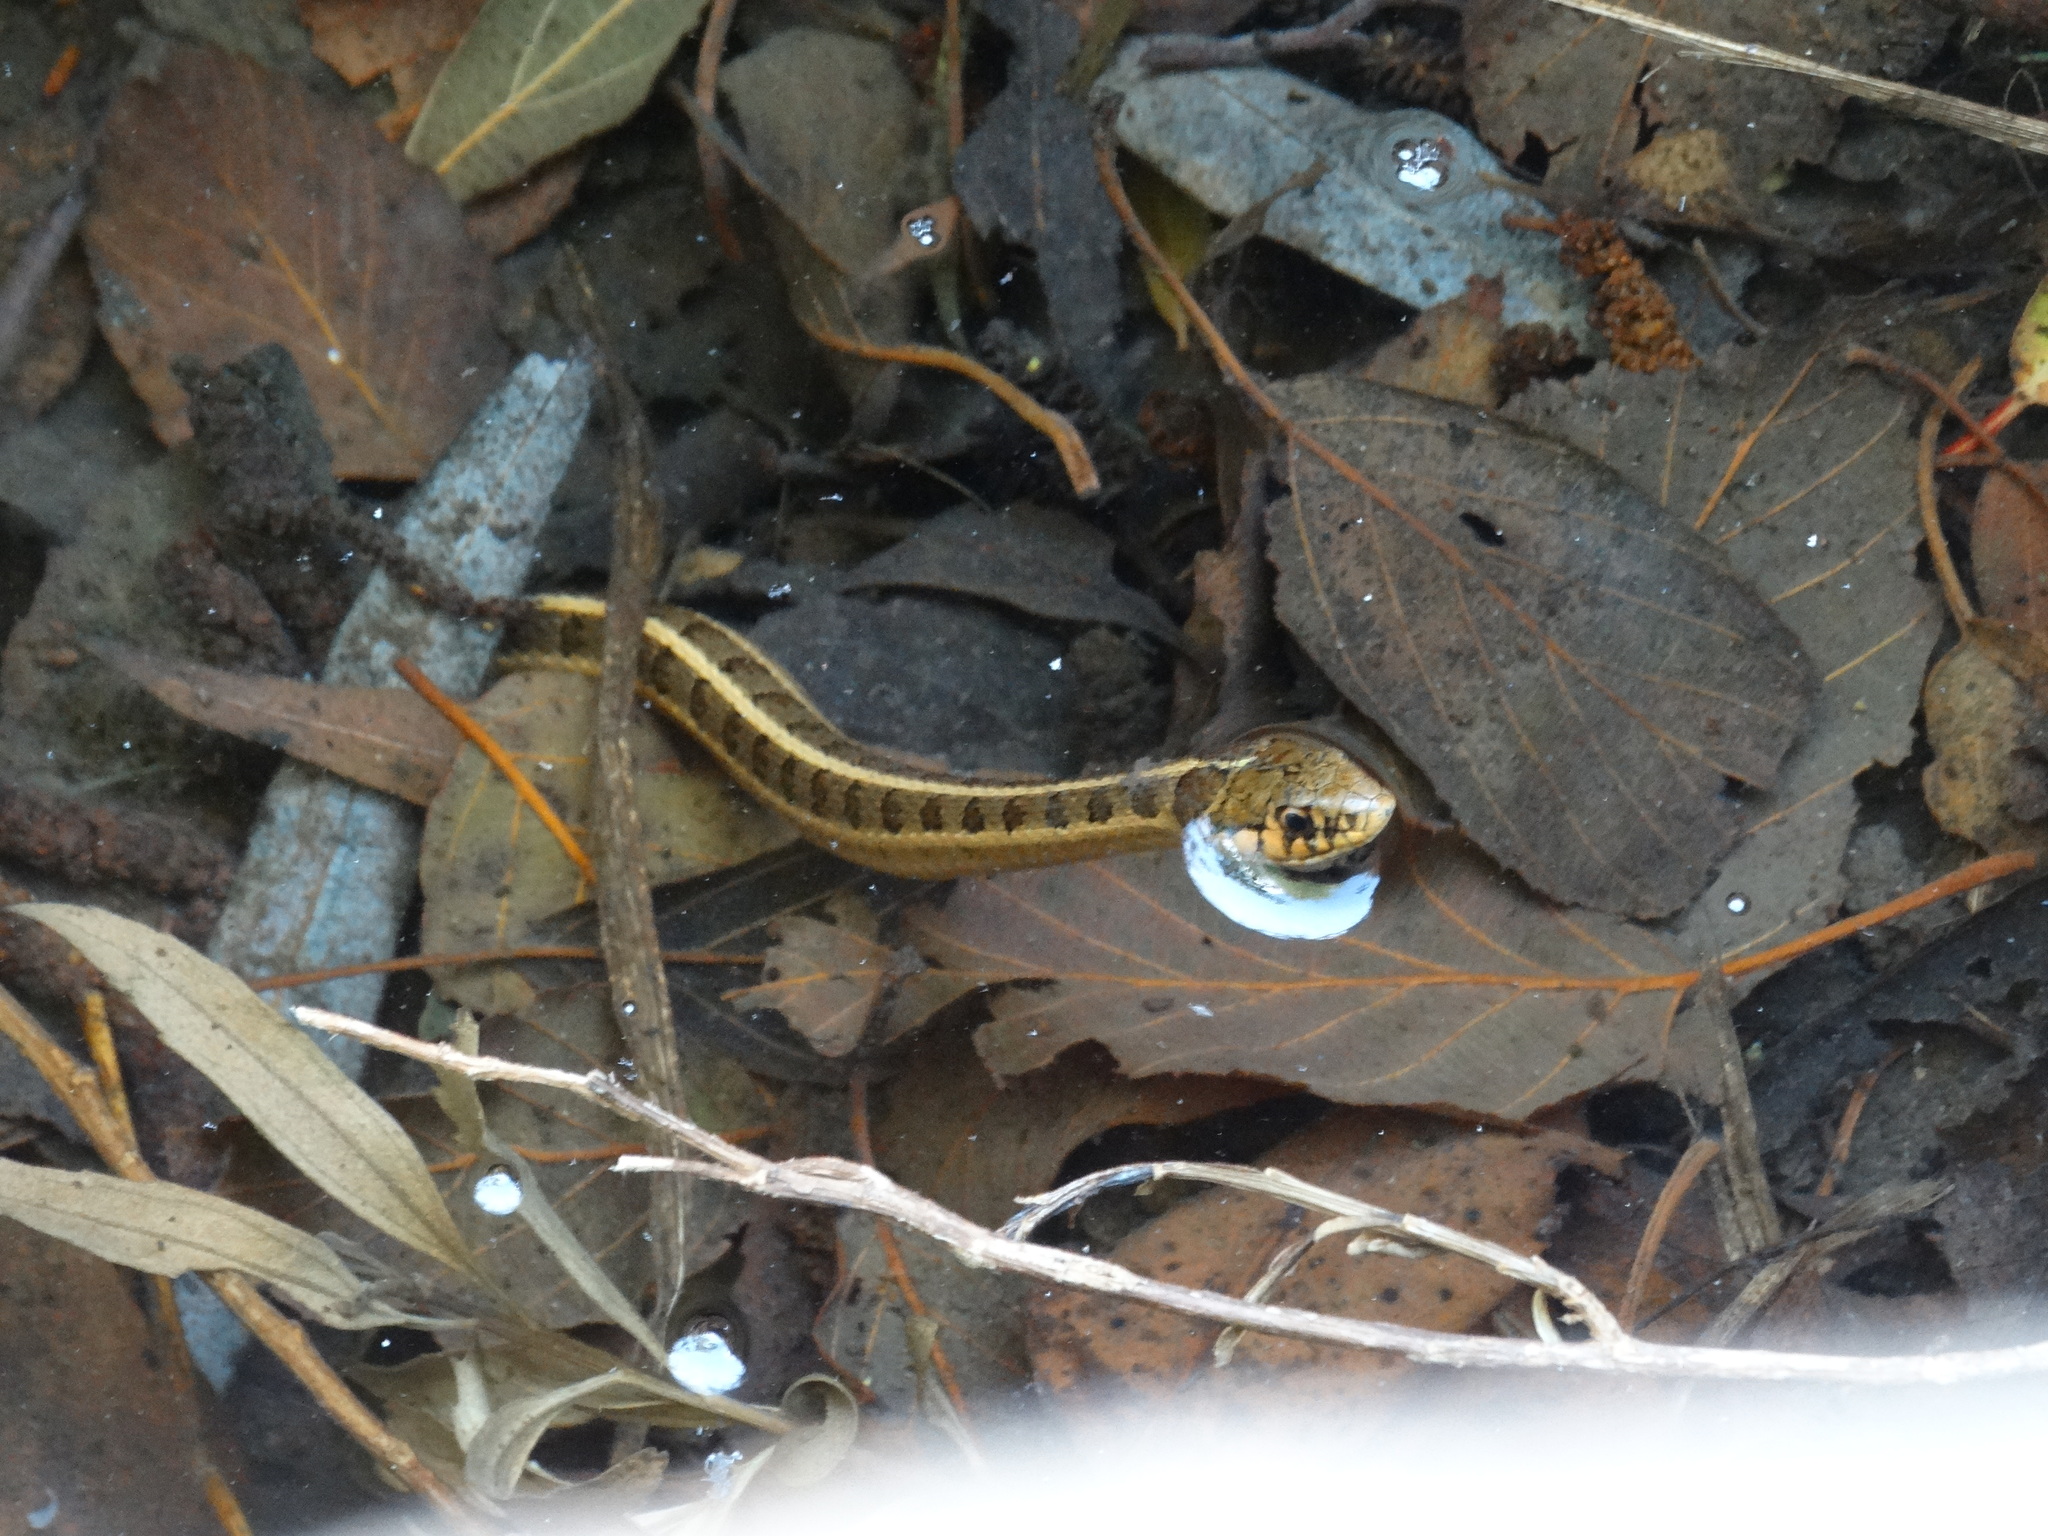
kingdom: Animalia
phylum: Chordata
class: Squamata
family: Colubridae
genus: Thamnophis
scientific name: Thamnophis scalaris
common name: Longtail alpine garter snake
